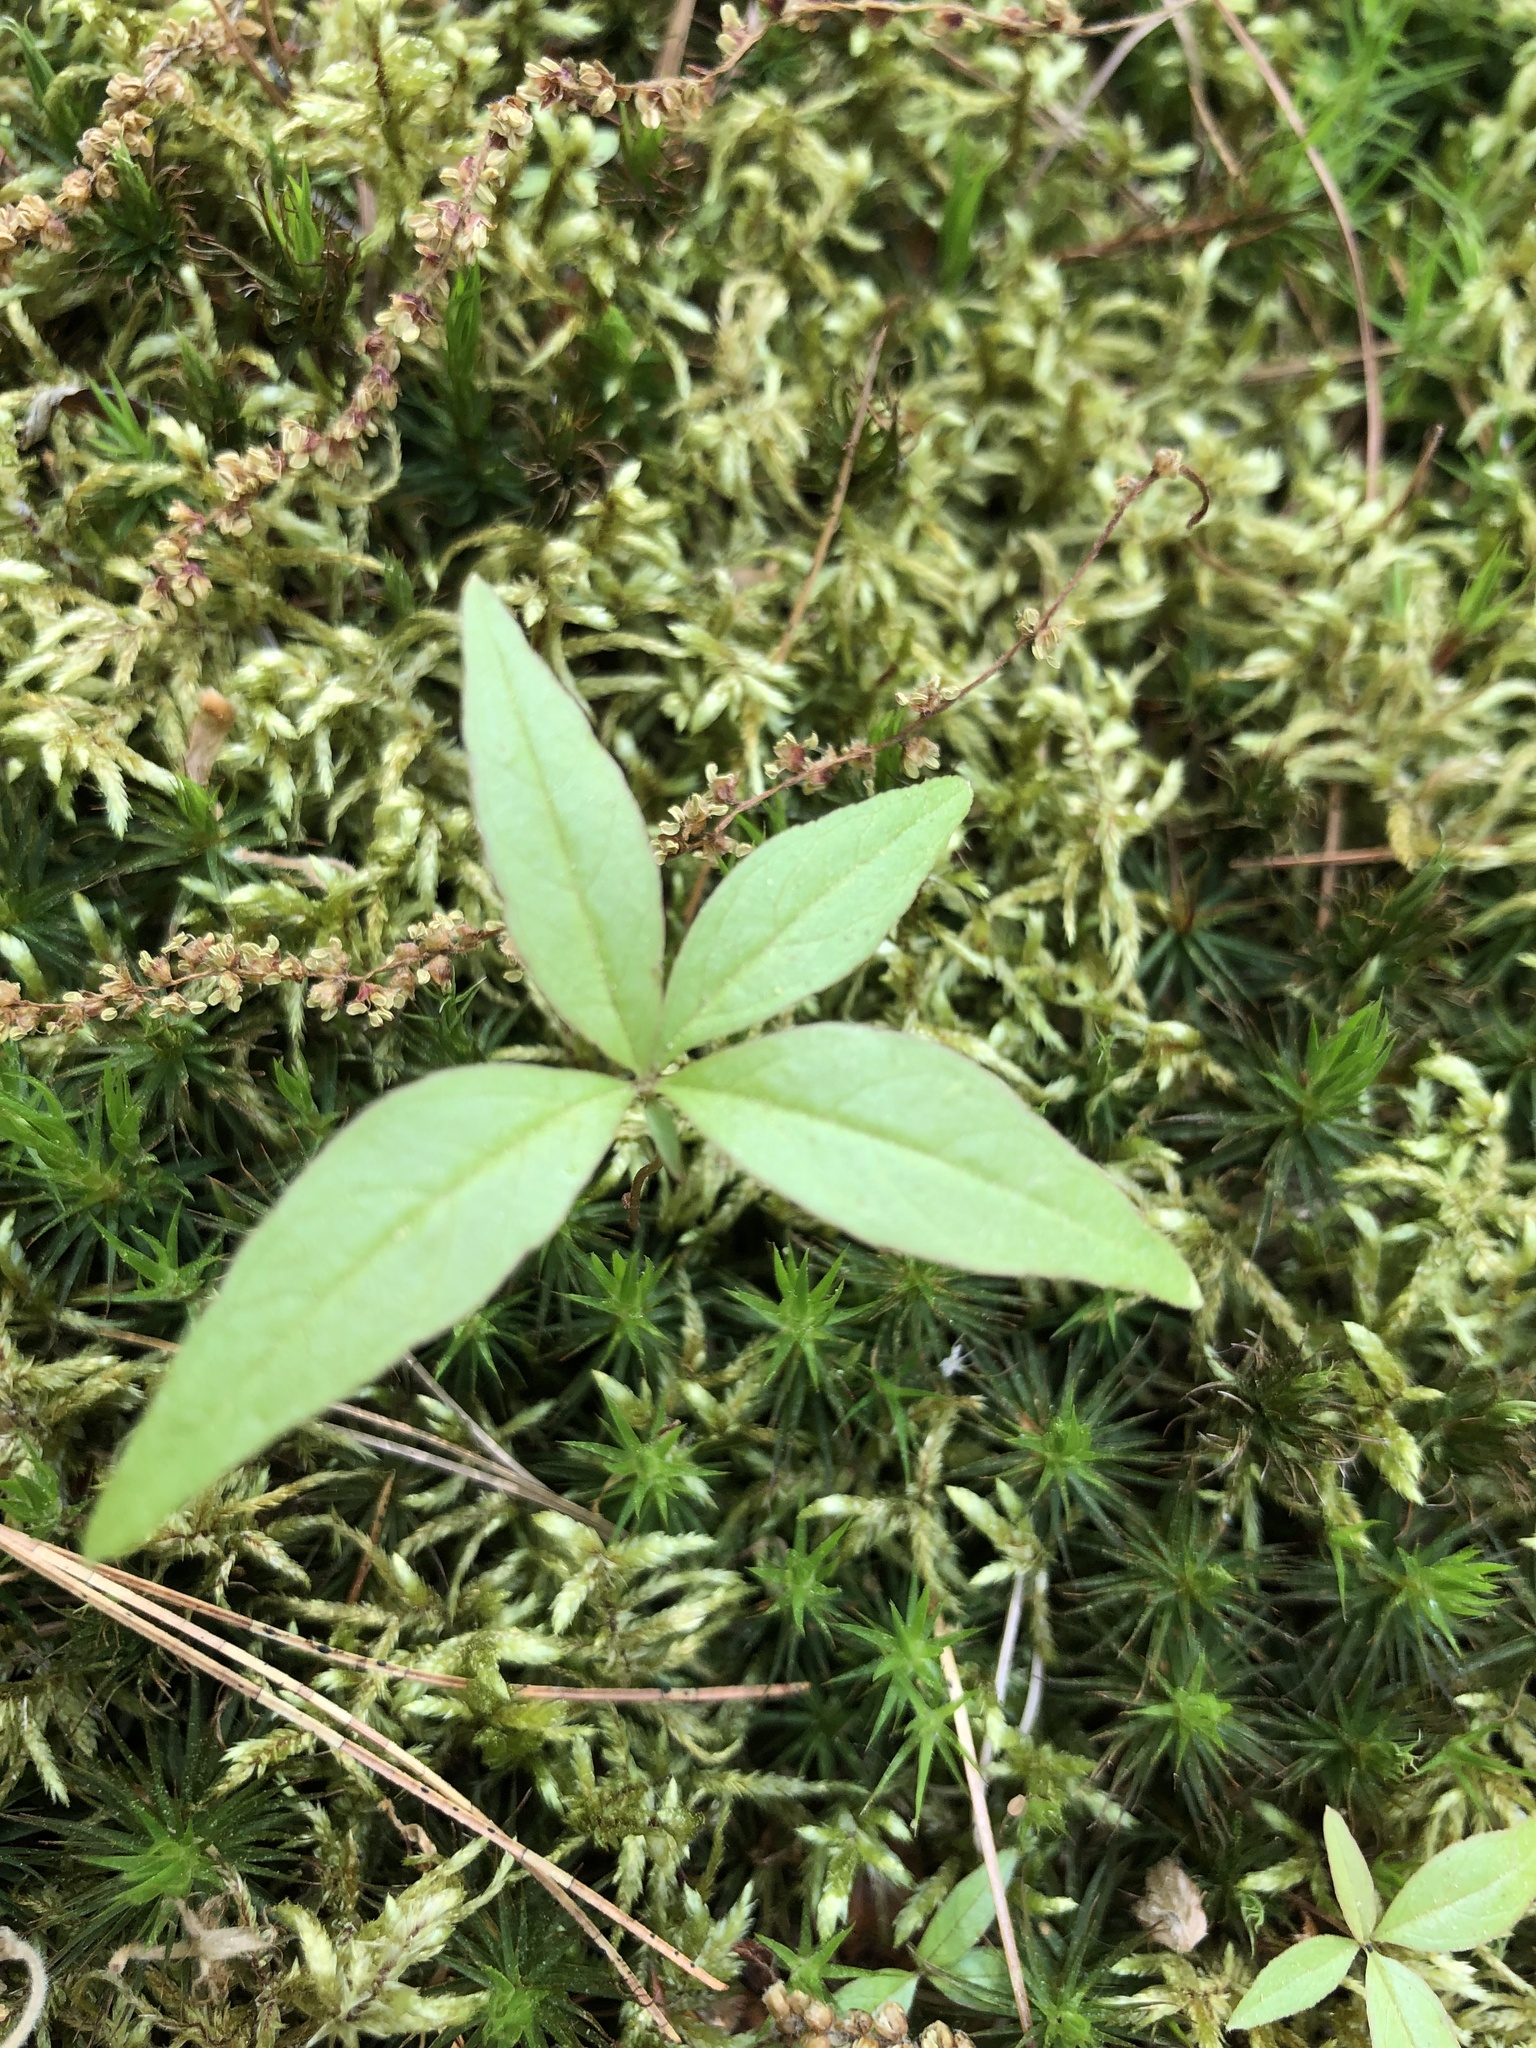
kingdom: Plantae
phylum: Tracheophyta
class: Magnoliopsida
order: Ericales
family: Primulaceae
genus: Lysimachia
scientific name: Lysimachia borealis
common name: American starflower
